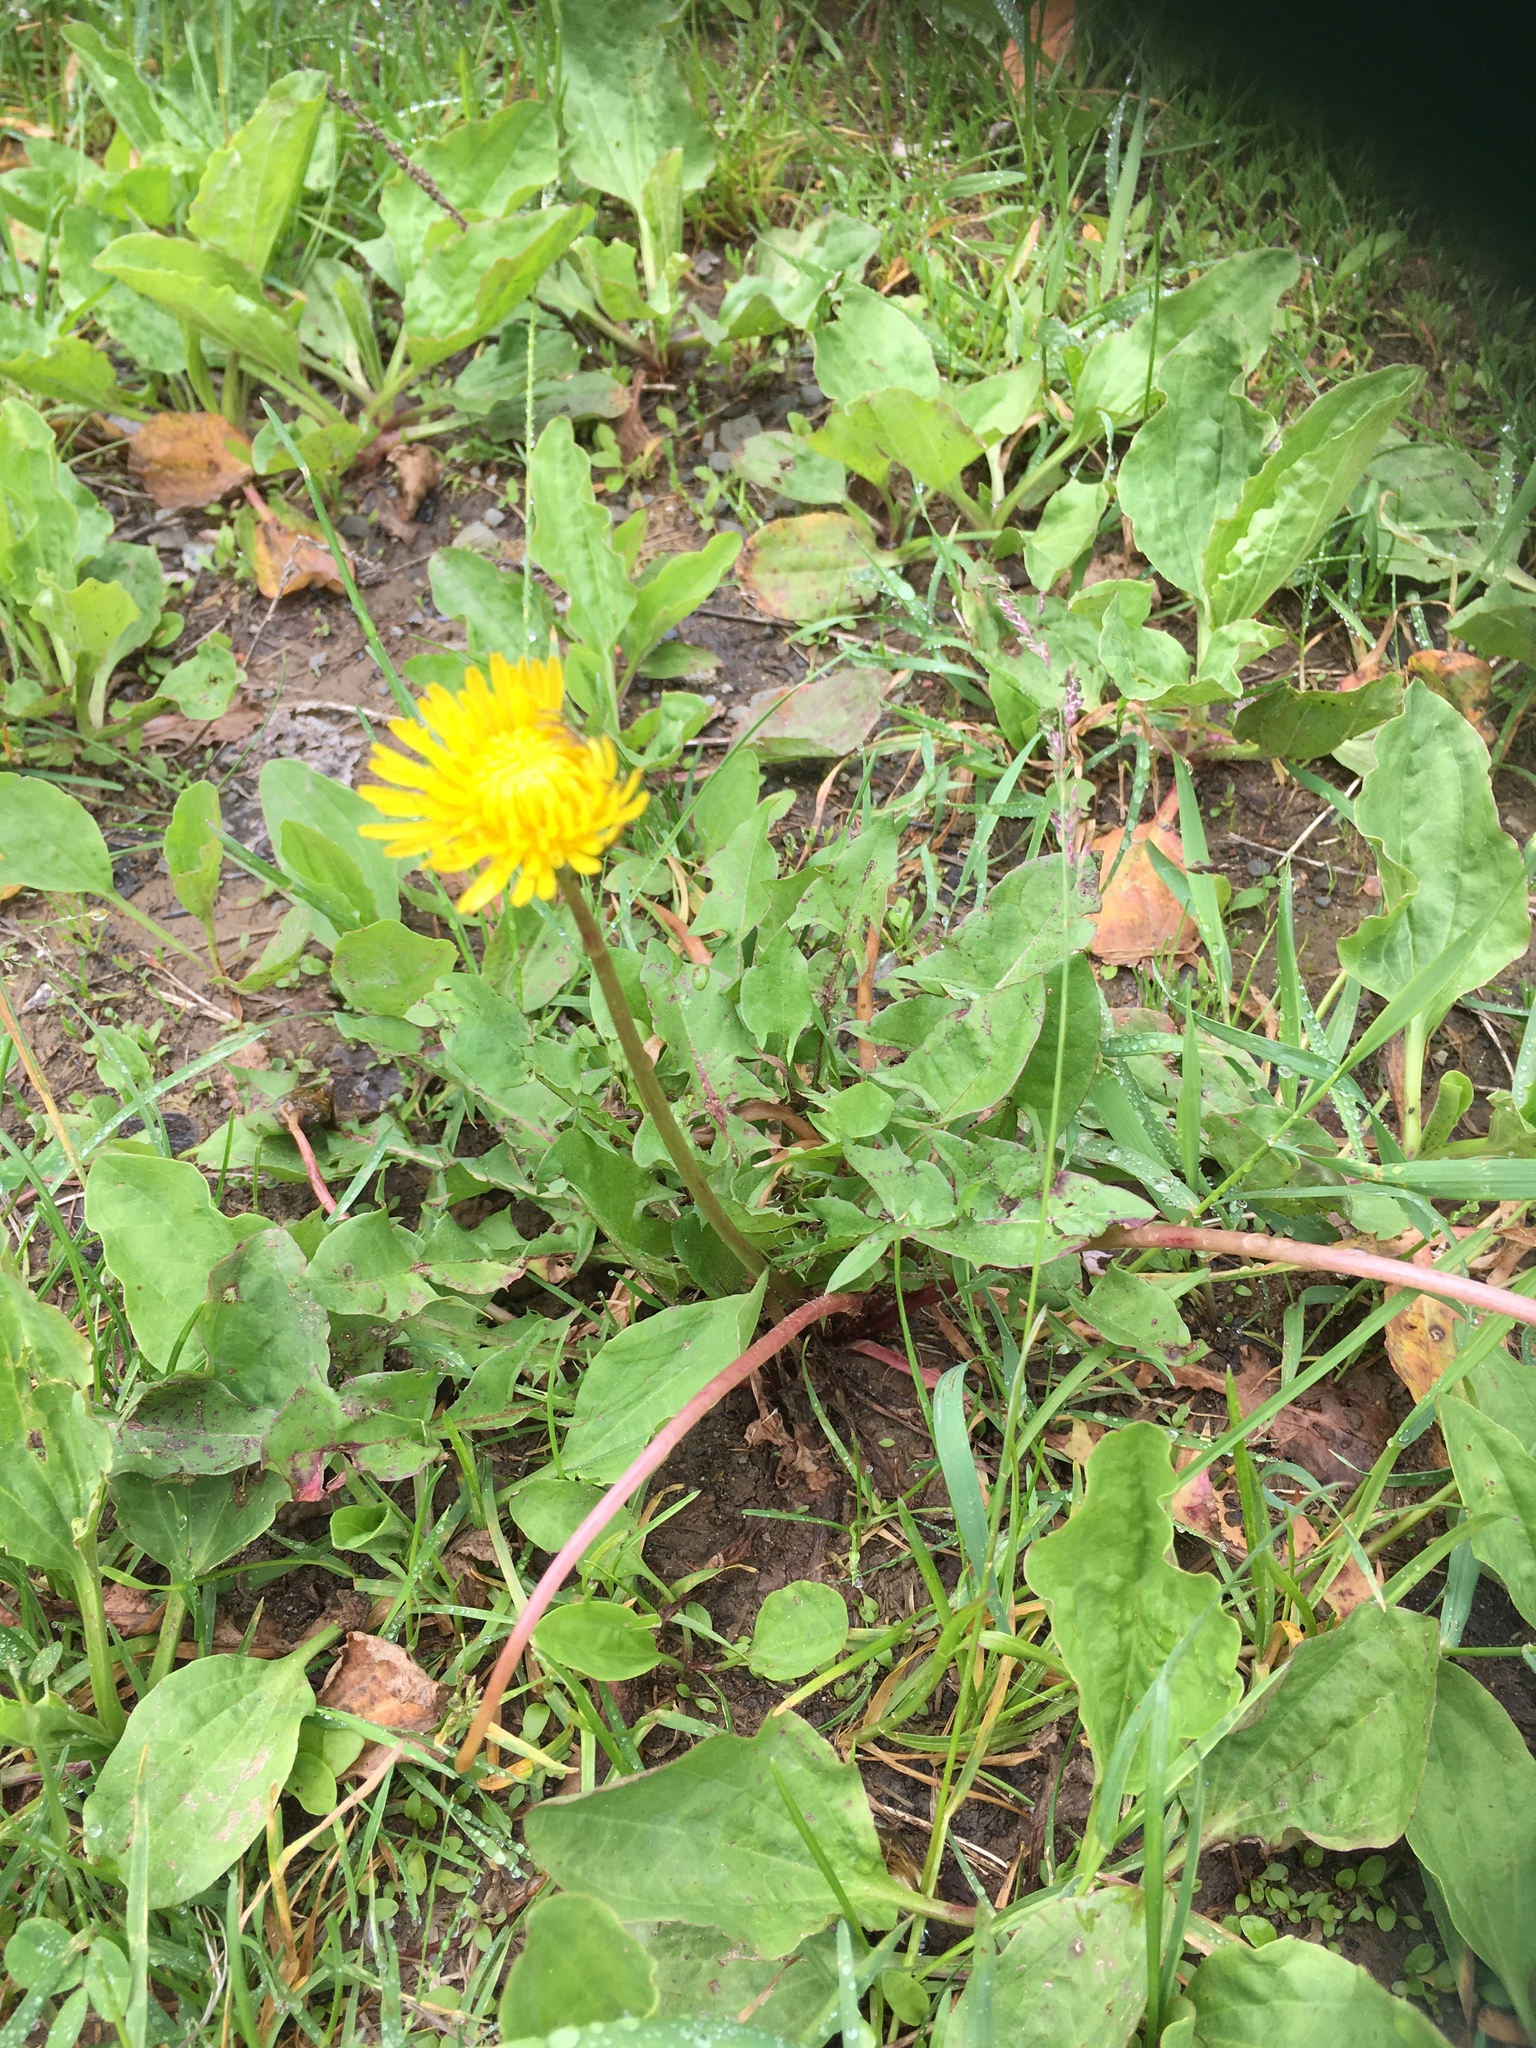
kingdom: Plantae
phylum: Tracheophyta
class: Magnoliopsida
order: Asterales
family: Asteraceae
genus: Taraxacum
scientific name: Taraxacum officinale
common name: Common dandelion
